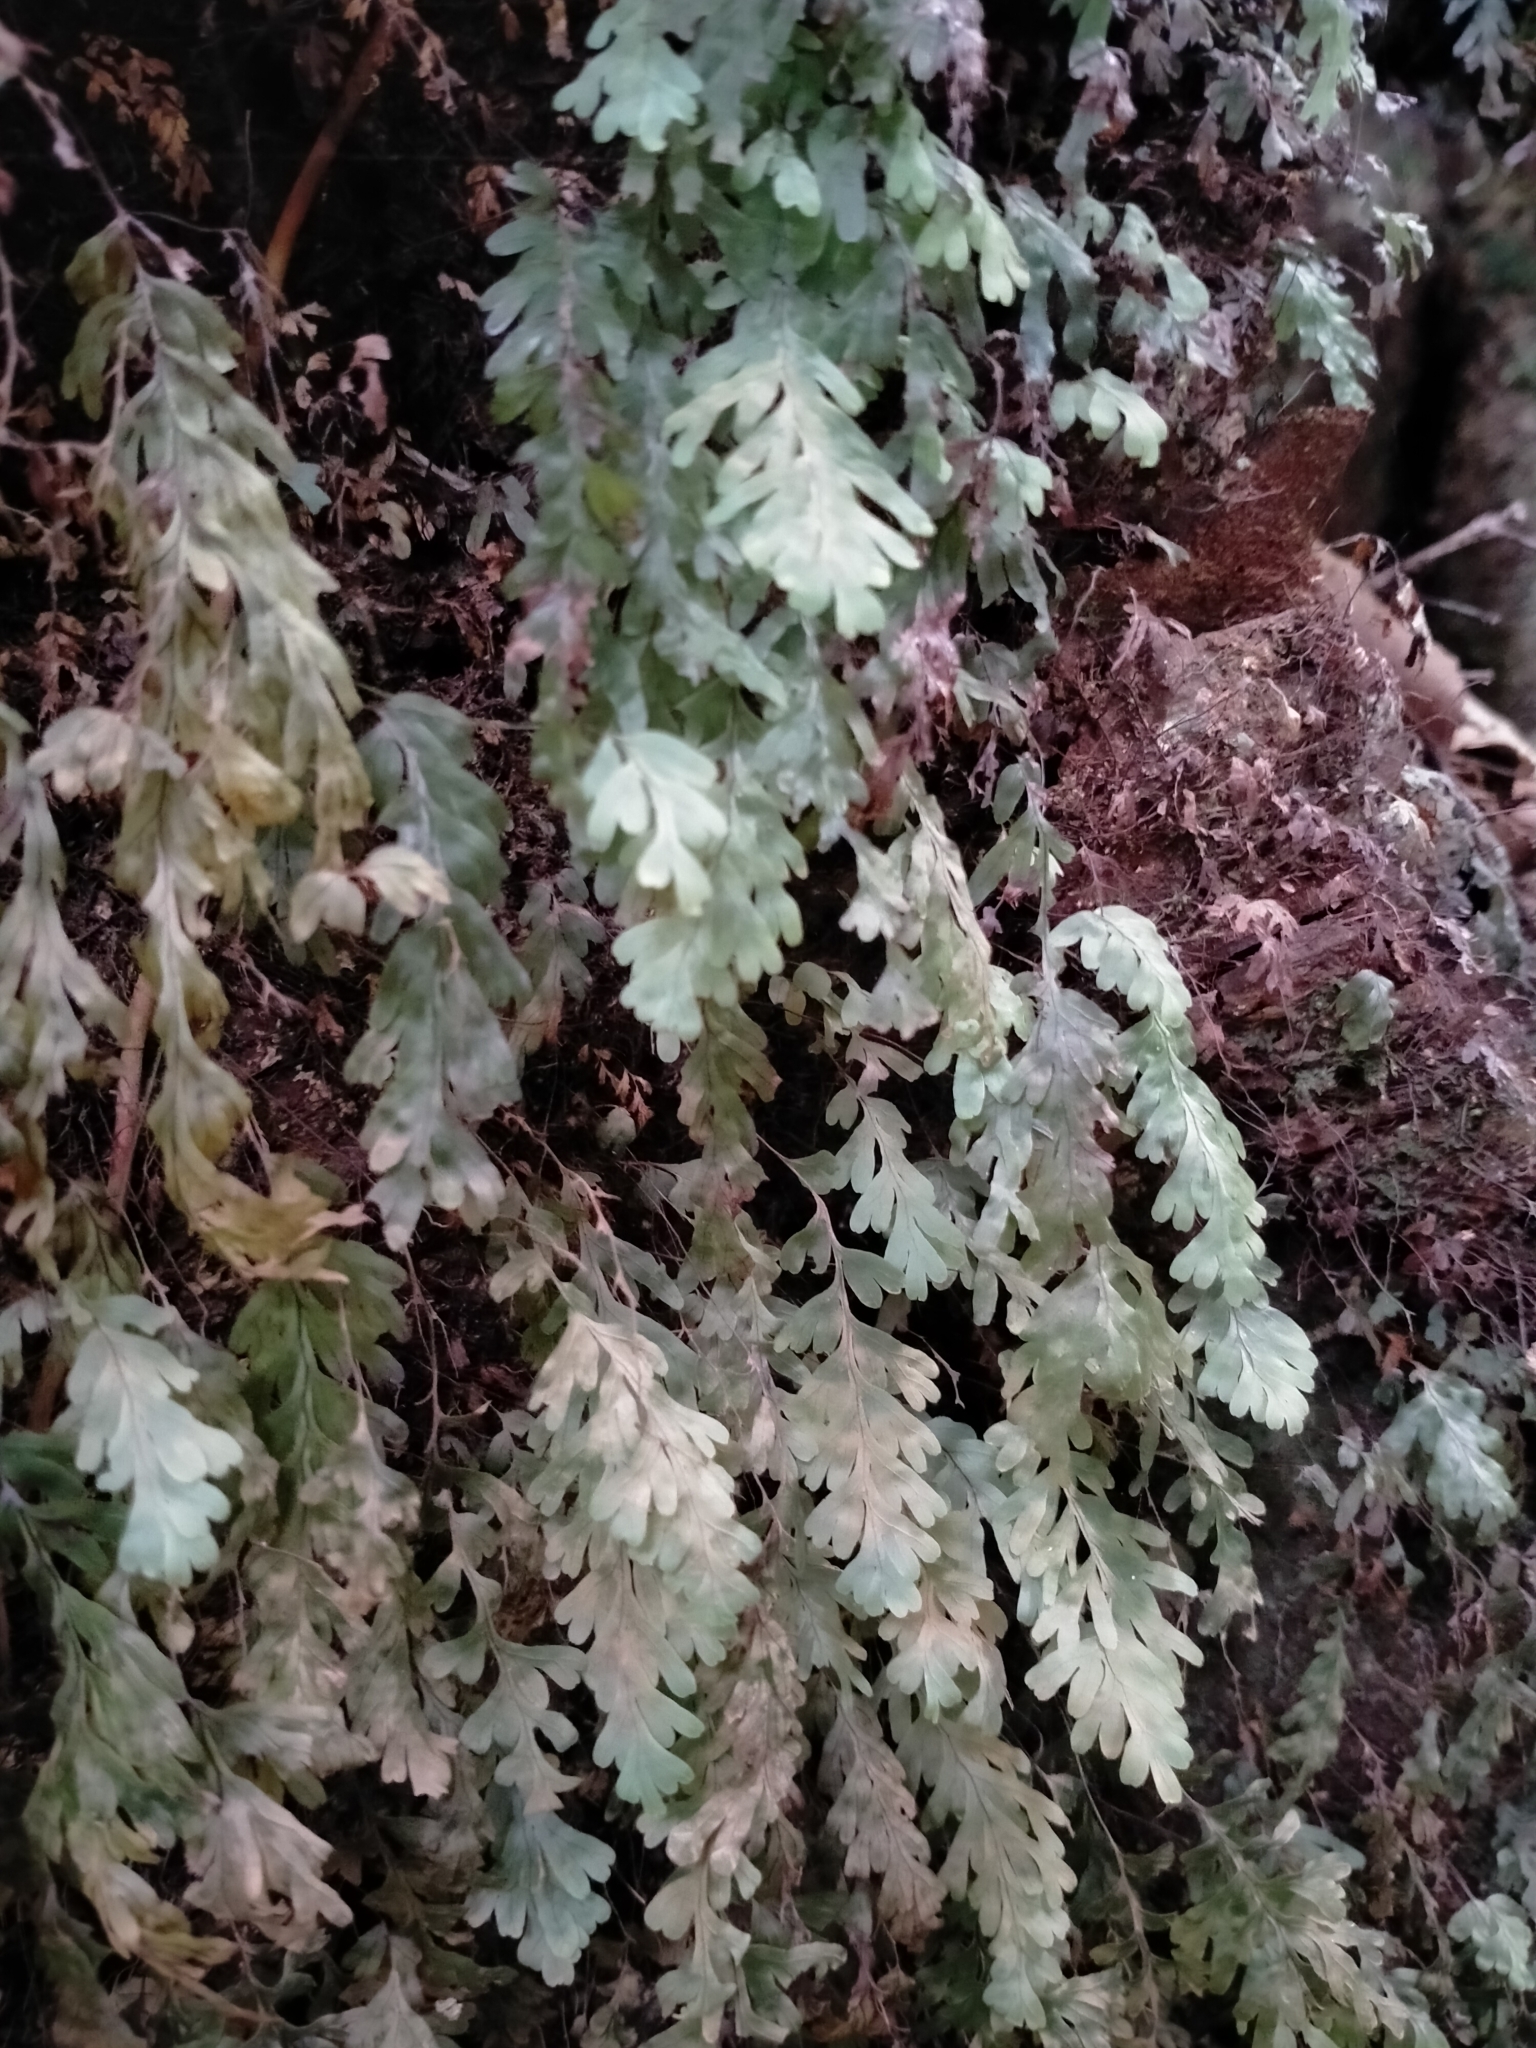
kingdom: Plantae
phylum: Tracheophyta
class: Polypodiopsida
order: Hymenophyllales
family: Hymenophyllaceae
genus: Hymenophyllum
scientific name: Hymenophyllum rarum
